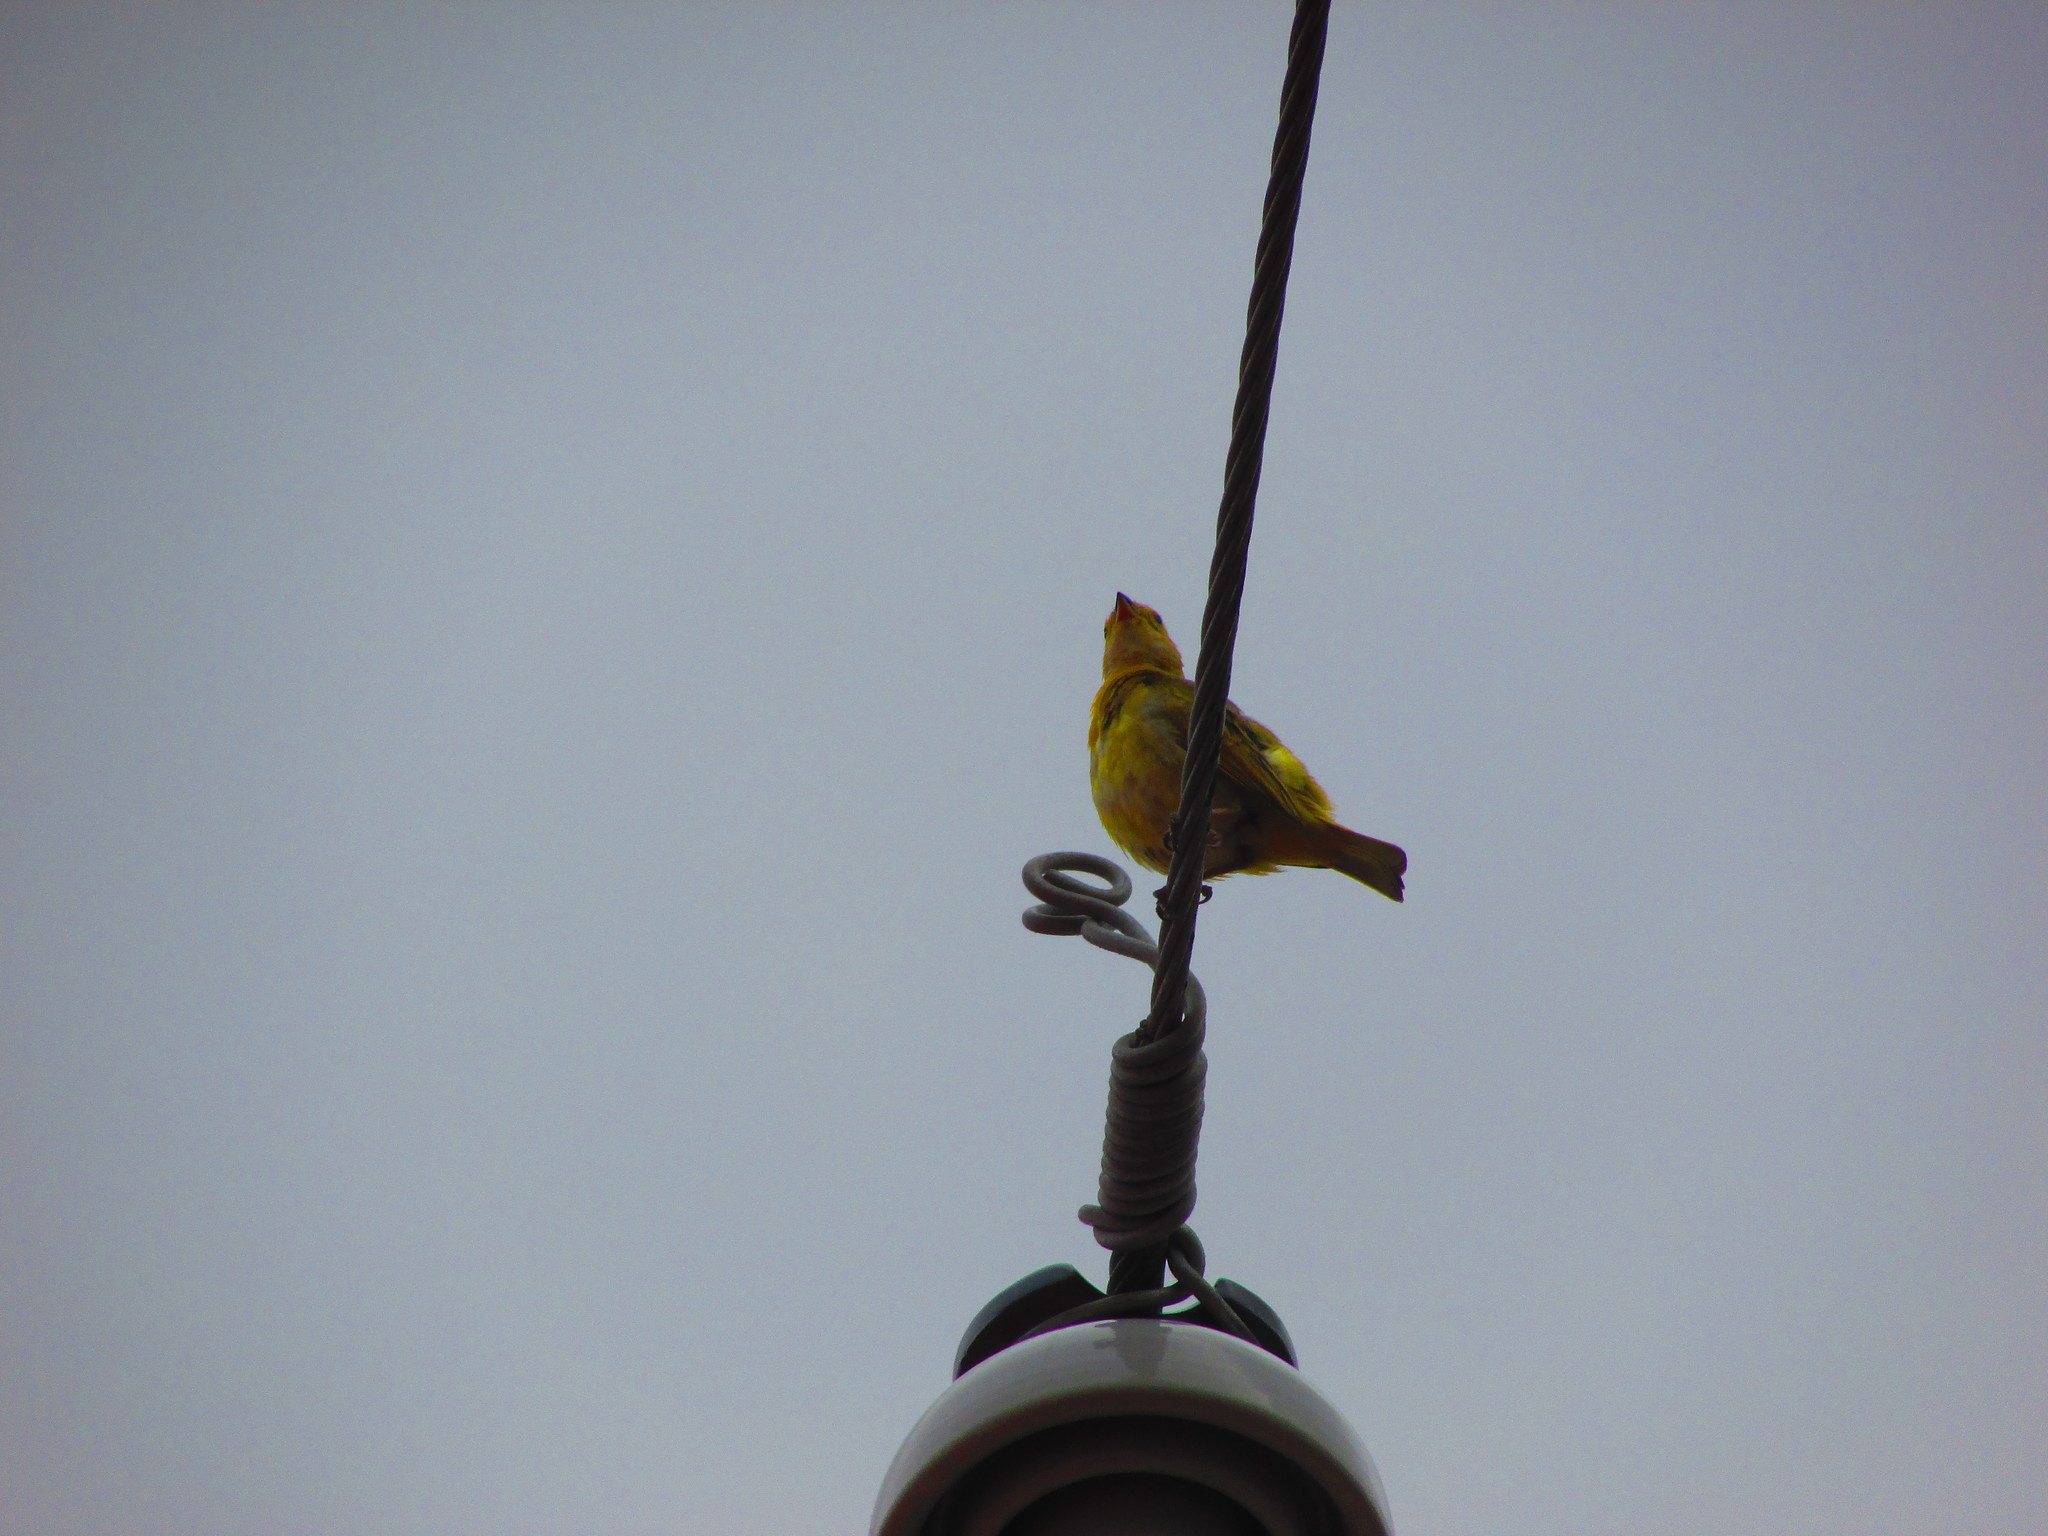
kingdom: Animalia
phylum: Chordata
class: Aves
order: Passeriformes
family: Thraupidae
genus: Sicalis
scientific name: Sicalis flaveola
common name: Saffron finch
